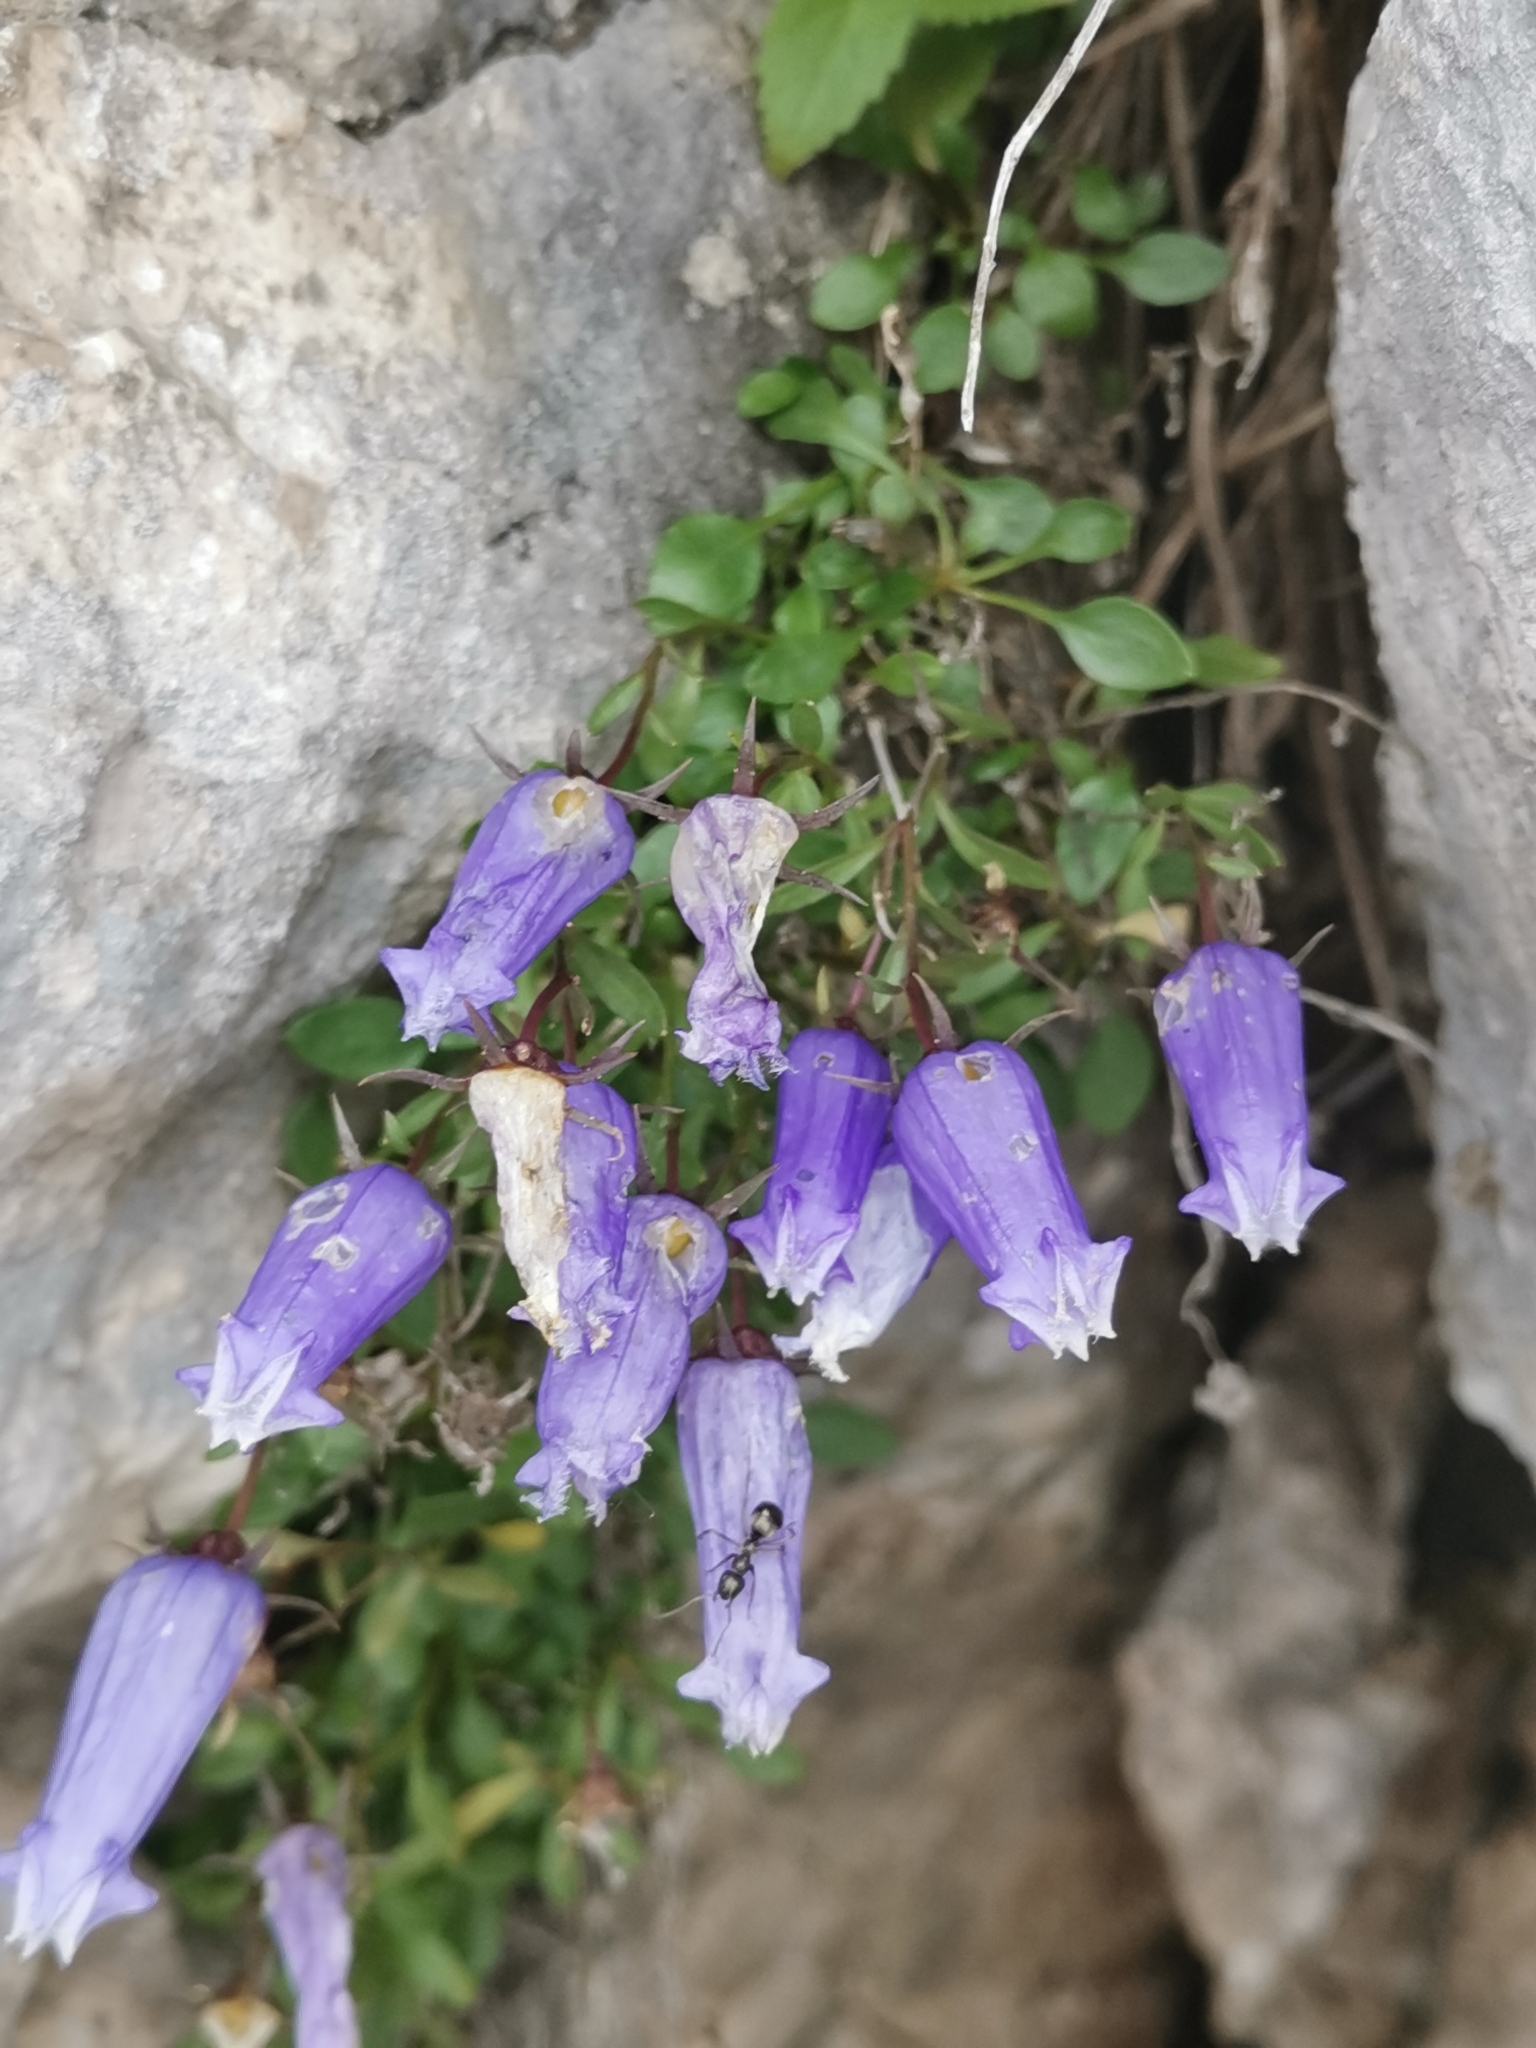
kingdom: Plantae
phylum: Tracheophyta
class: Magnoliopsida
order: Asterales
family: Campanulaceae
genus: Favratia
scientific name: Favratia zoysii
